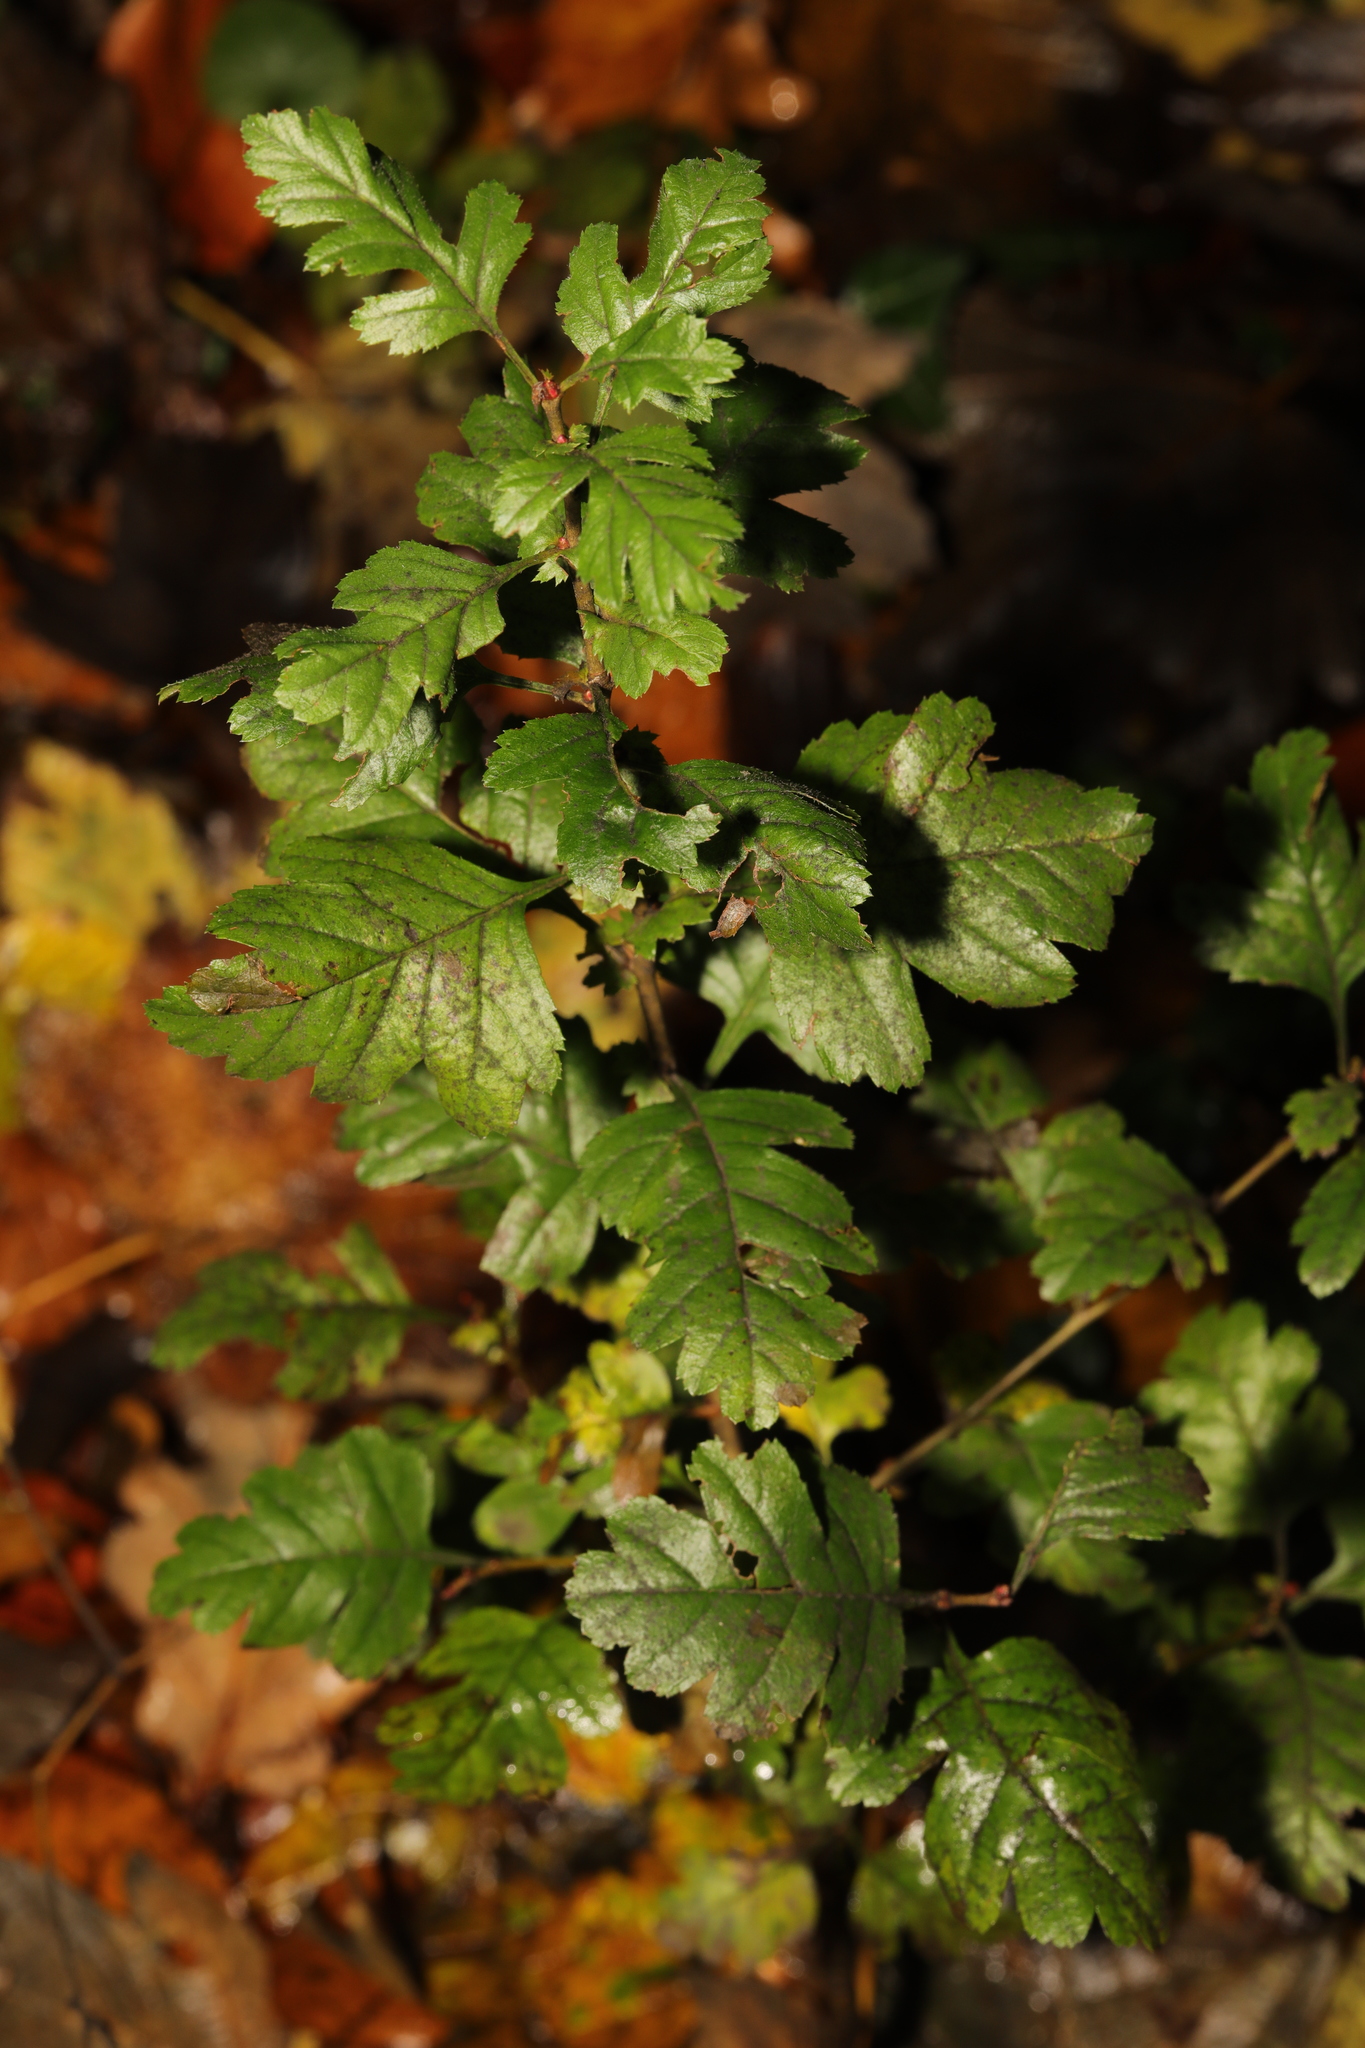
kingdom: Plantae
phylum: Tracheophyta
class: Magnoliopsida
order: Rosales
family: Rosaceae
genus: Crataegus
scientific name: Crataegus monogyna
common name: Hawthorn
